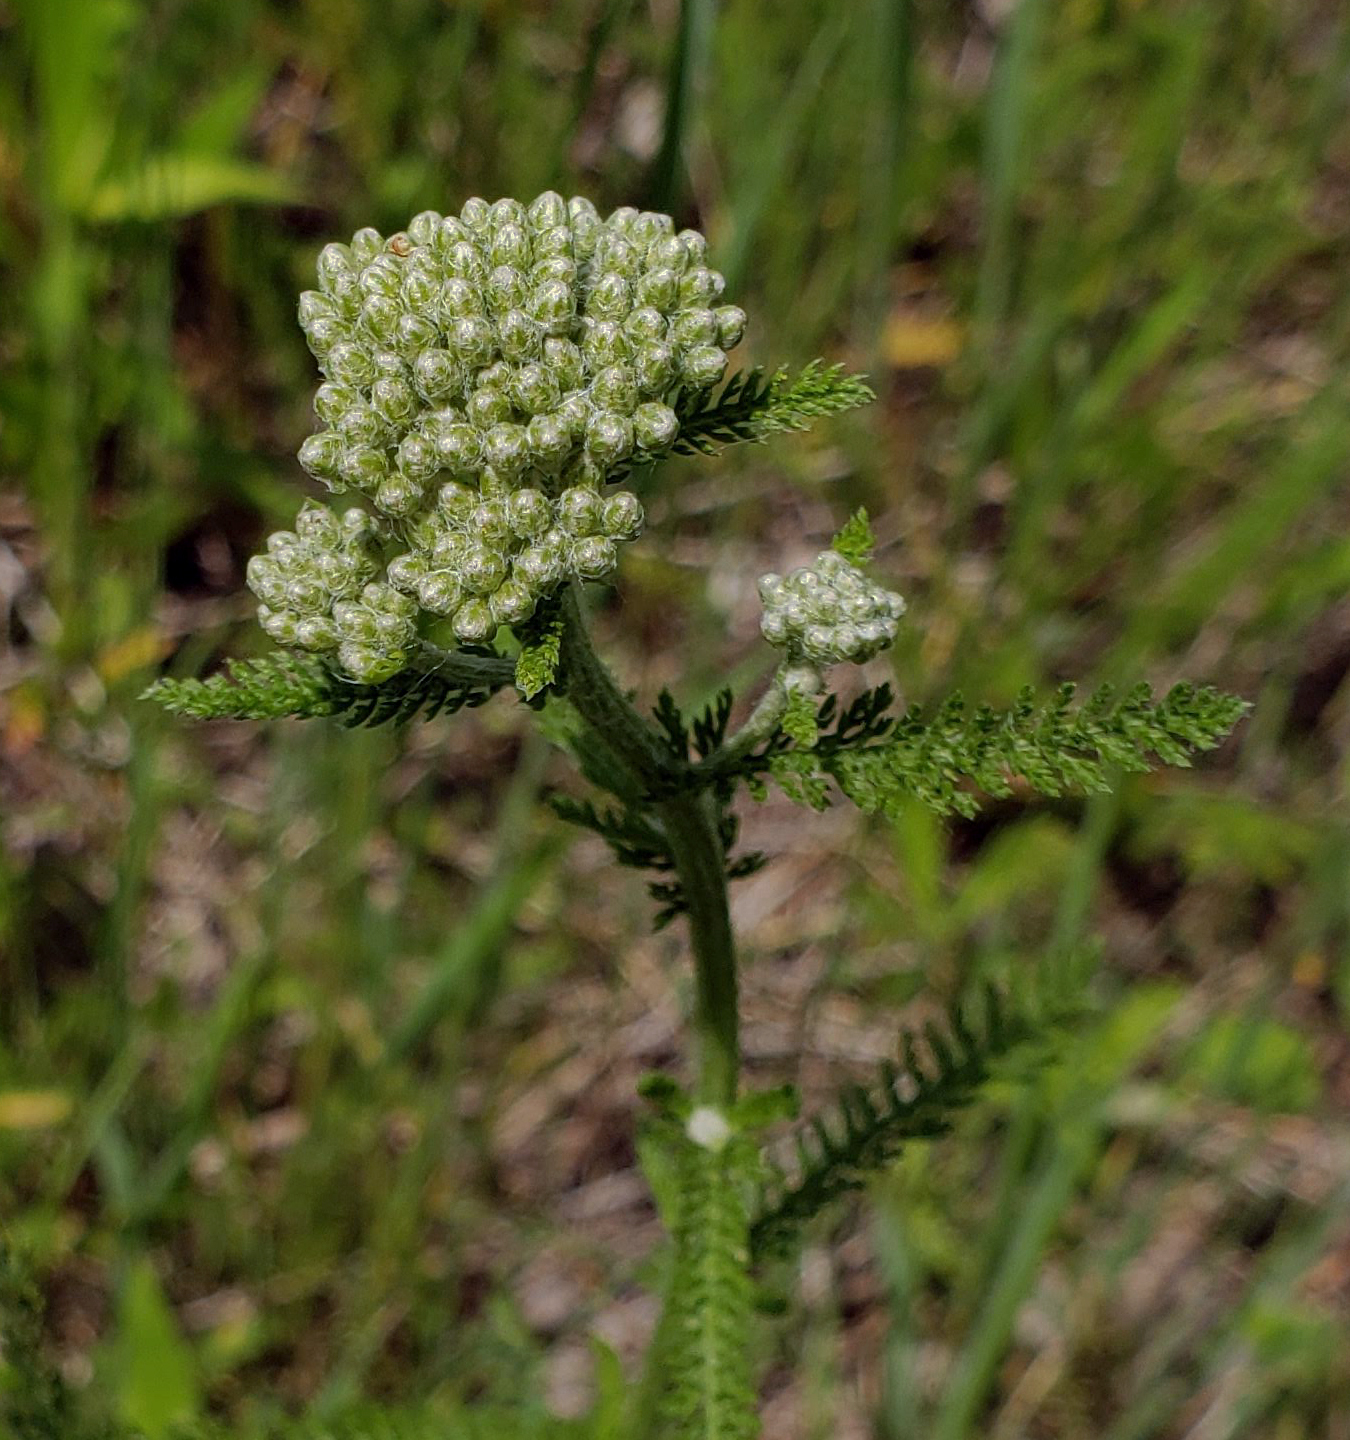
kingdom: Plantae
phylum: Tracheophyta
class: Magnoliopsida
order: Asterales
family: Asteraceae
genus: Achillea
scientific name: Achillea millefolium
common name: Yarrow
